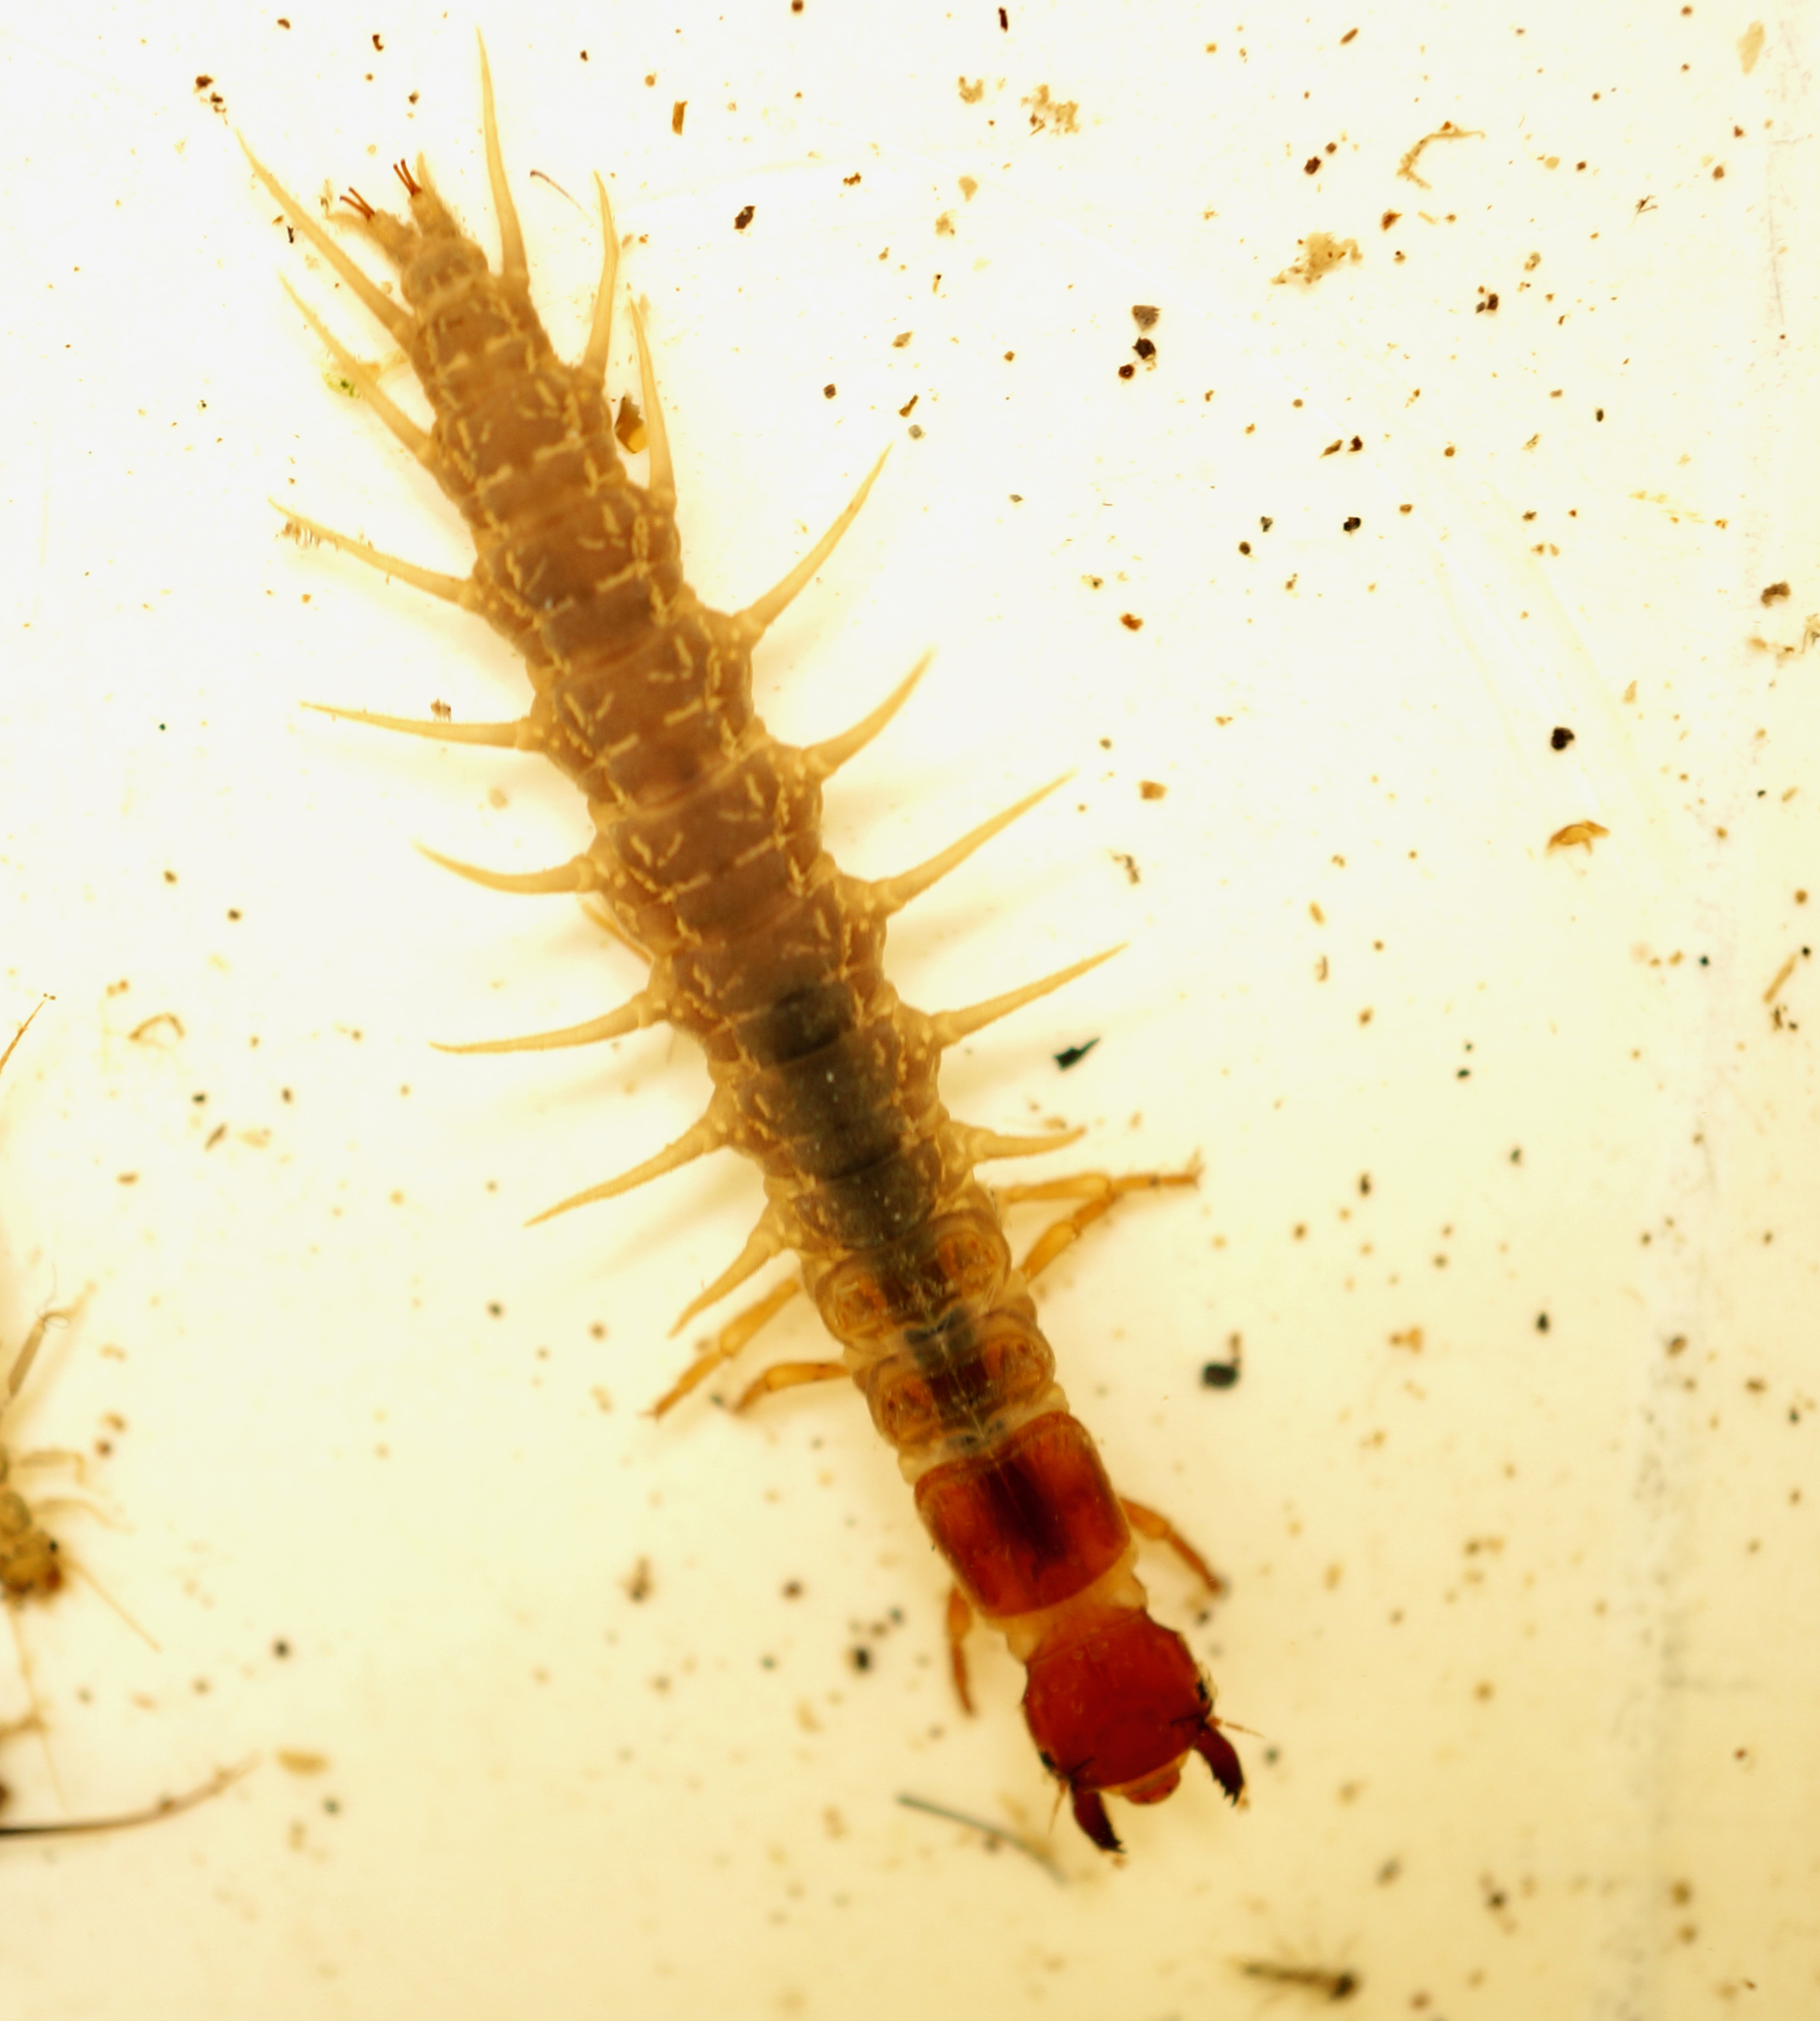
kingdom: Animalia
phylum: Arthropoda
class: Insecta
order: Megaloptera
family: Corydalidae
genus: Archichauliodes
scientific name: Archichauliodes diversus
